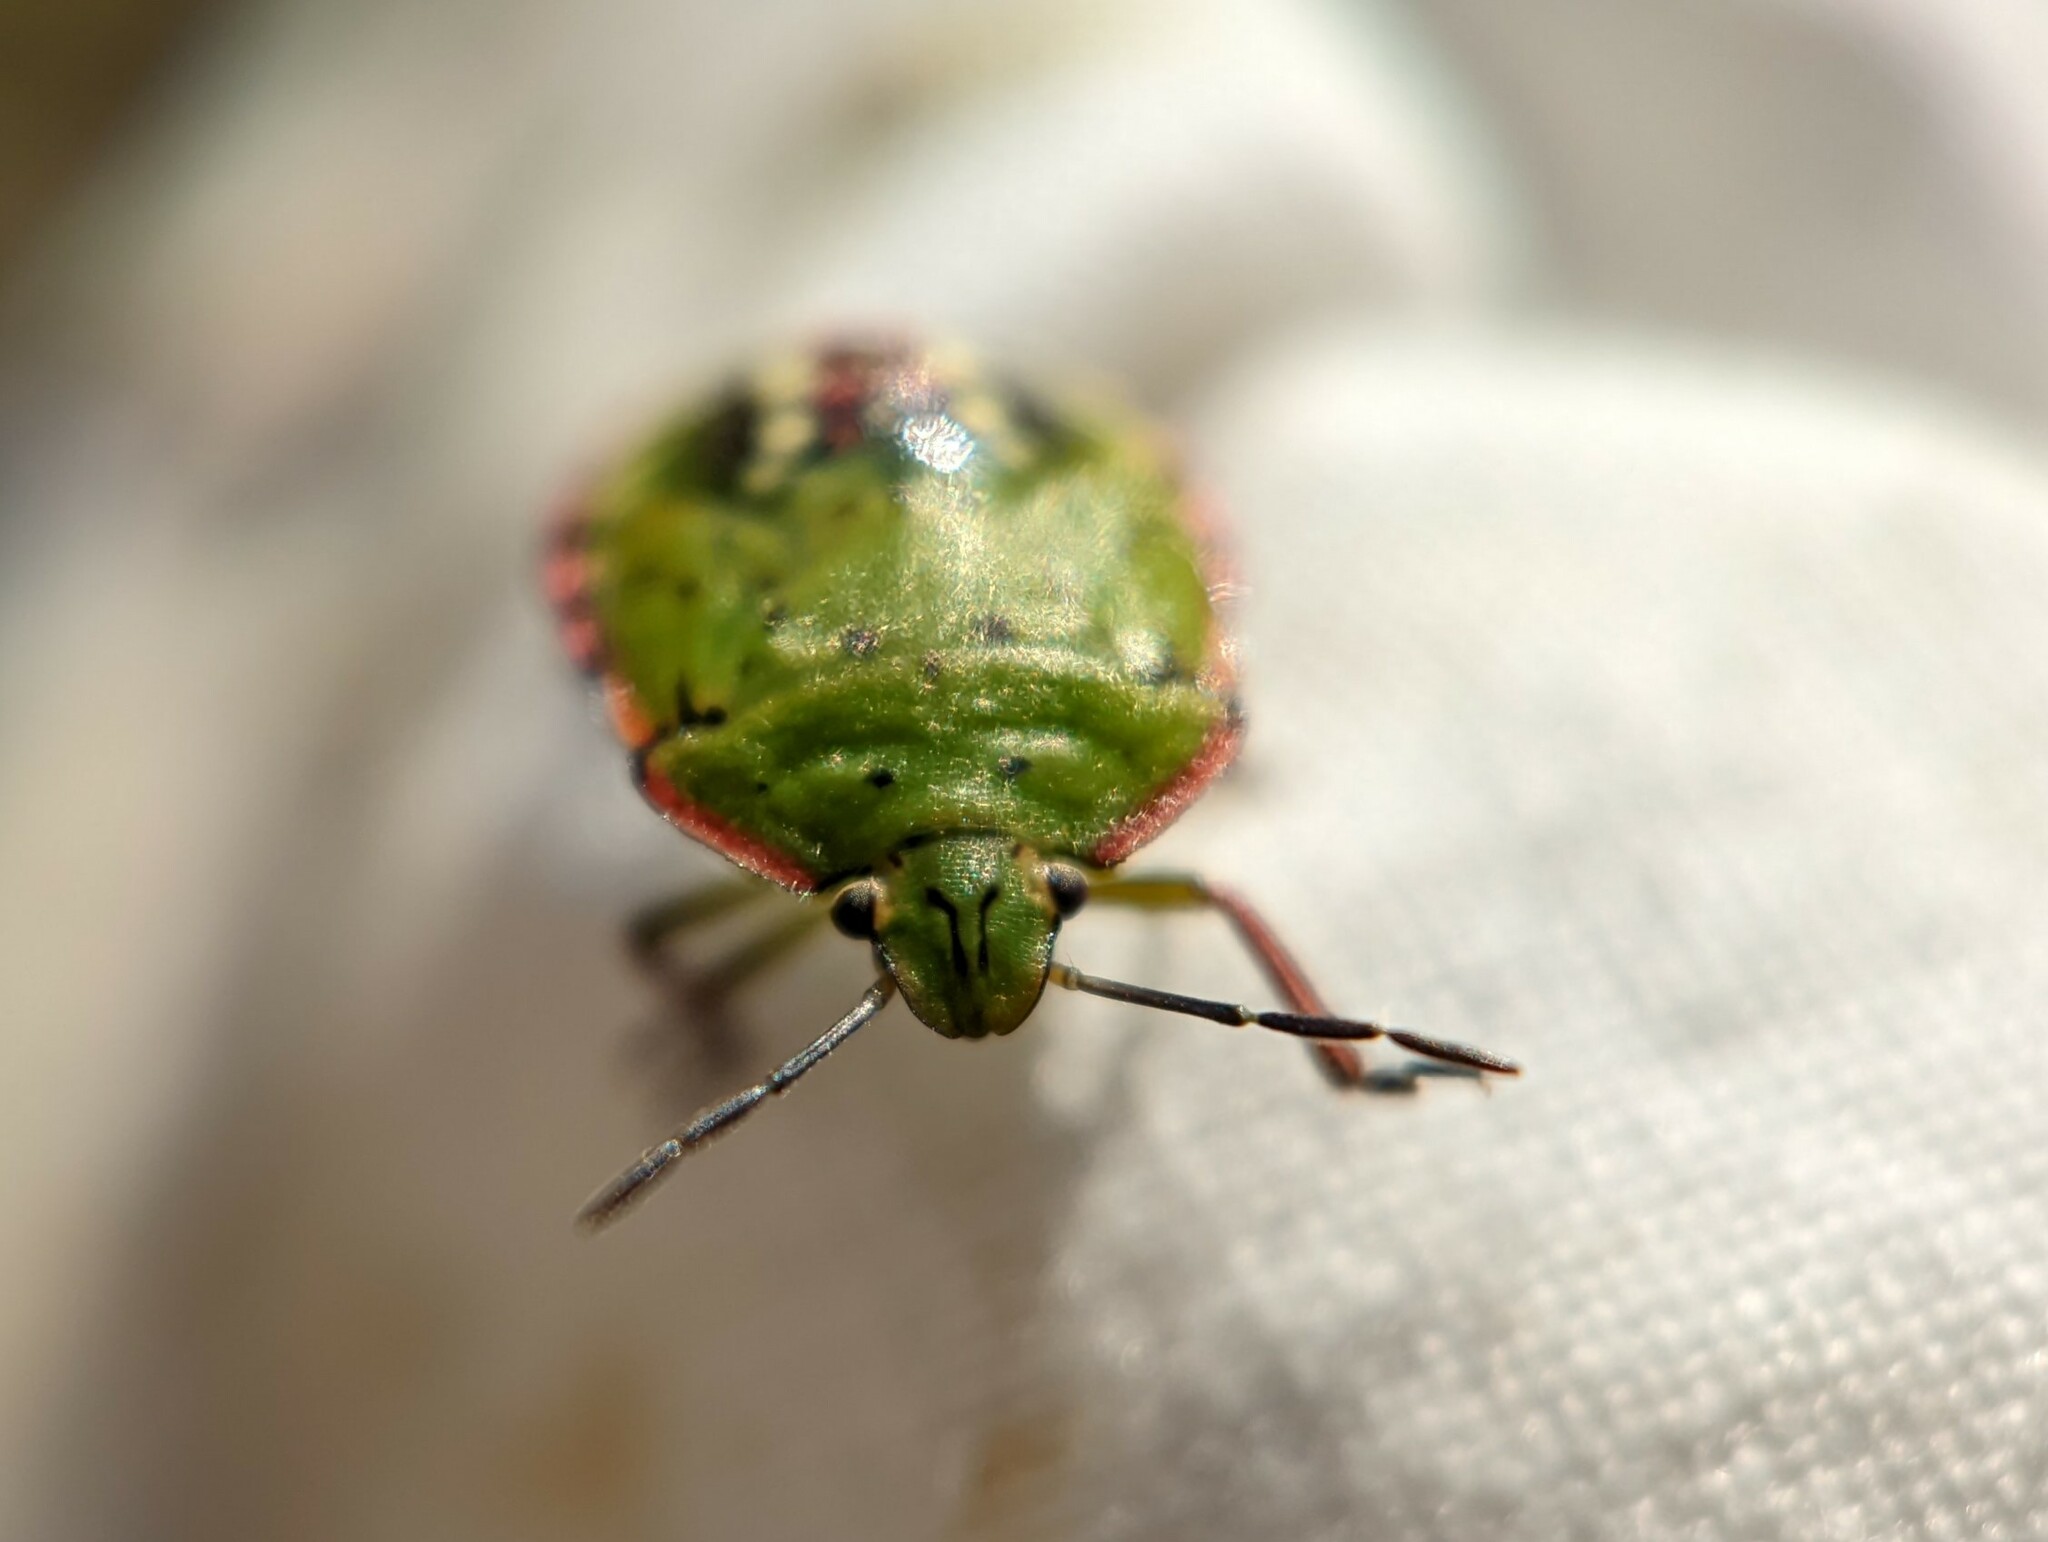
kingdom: Animalia
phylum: Arthropoda
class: Insecta
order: Hemiptera
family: Pentatomidae
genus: Nezara
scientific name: Nezara viridula
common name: Southern green stink bug
